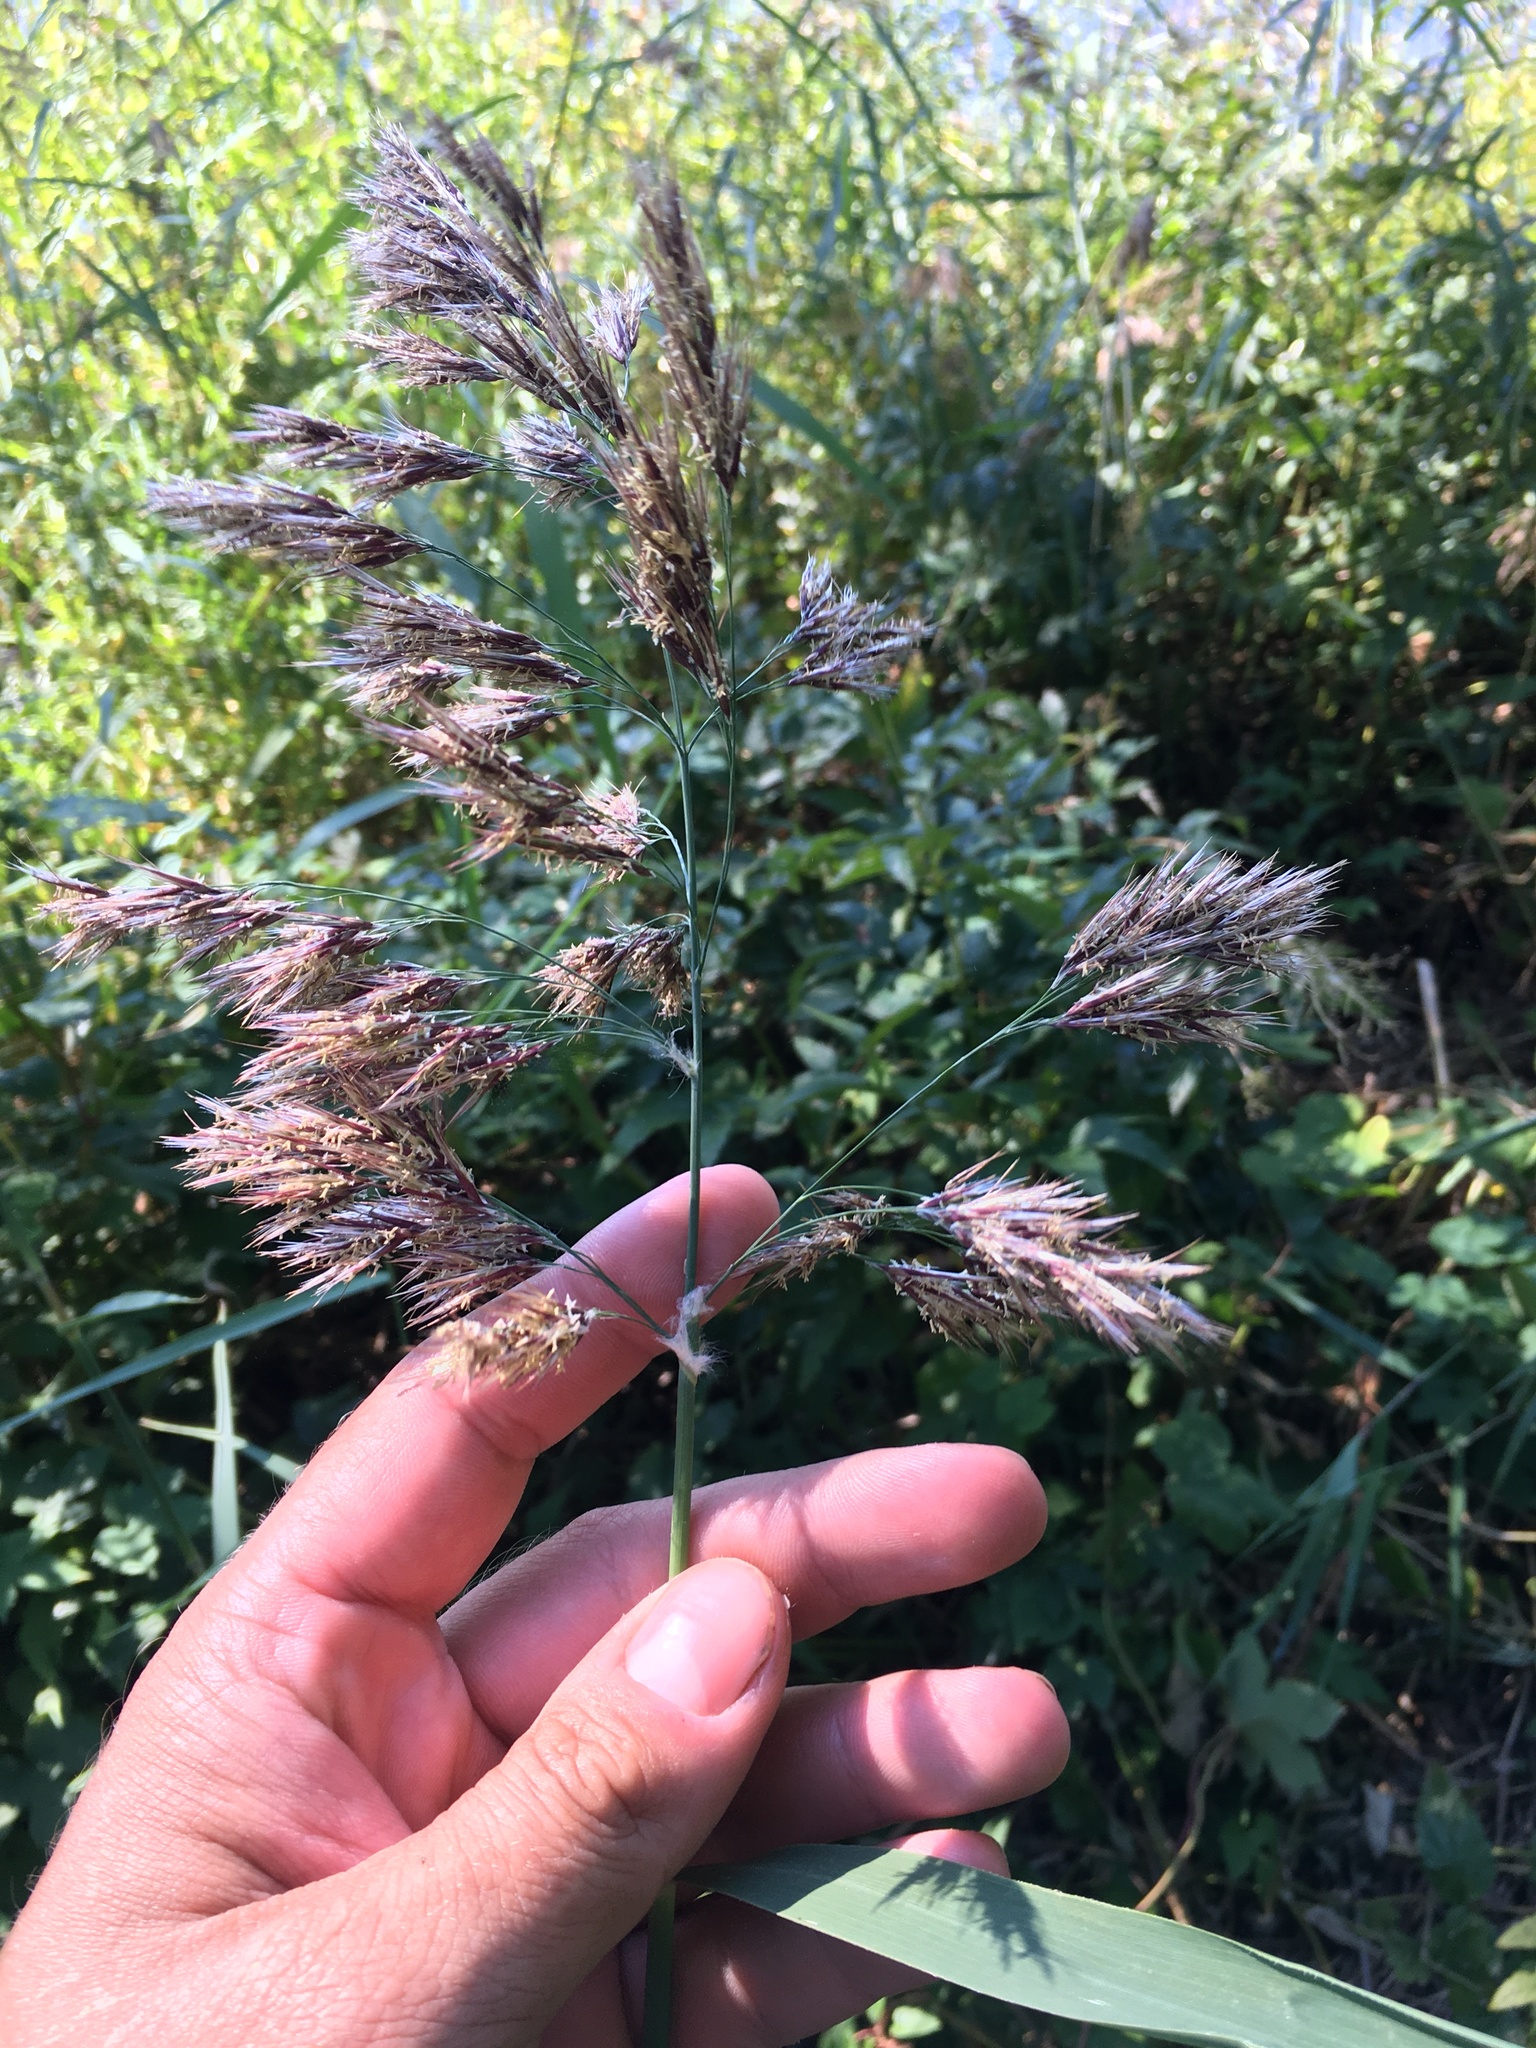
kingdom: Plantae
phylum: Tracheophyta
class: Liliopsida
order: Poales
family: Poaceae
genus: Phragmites
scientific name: Phragmites australis
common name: Common reed
